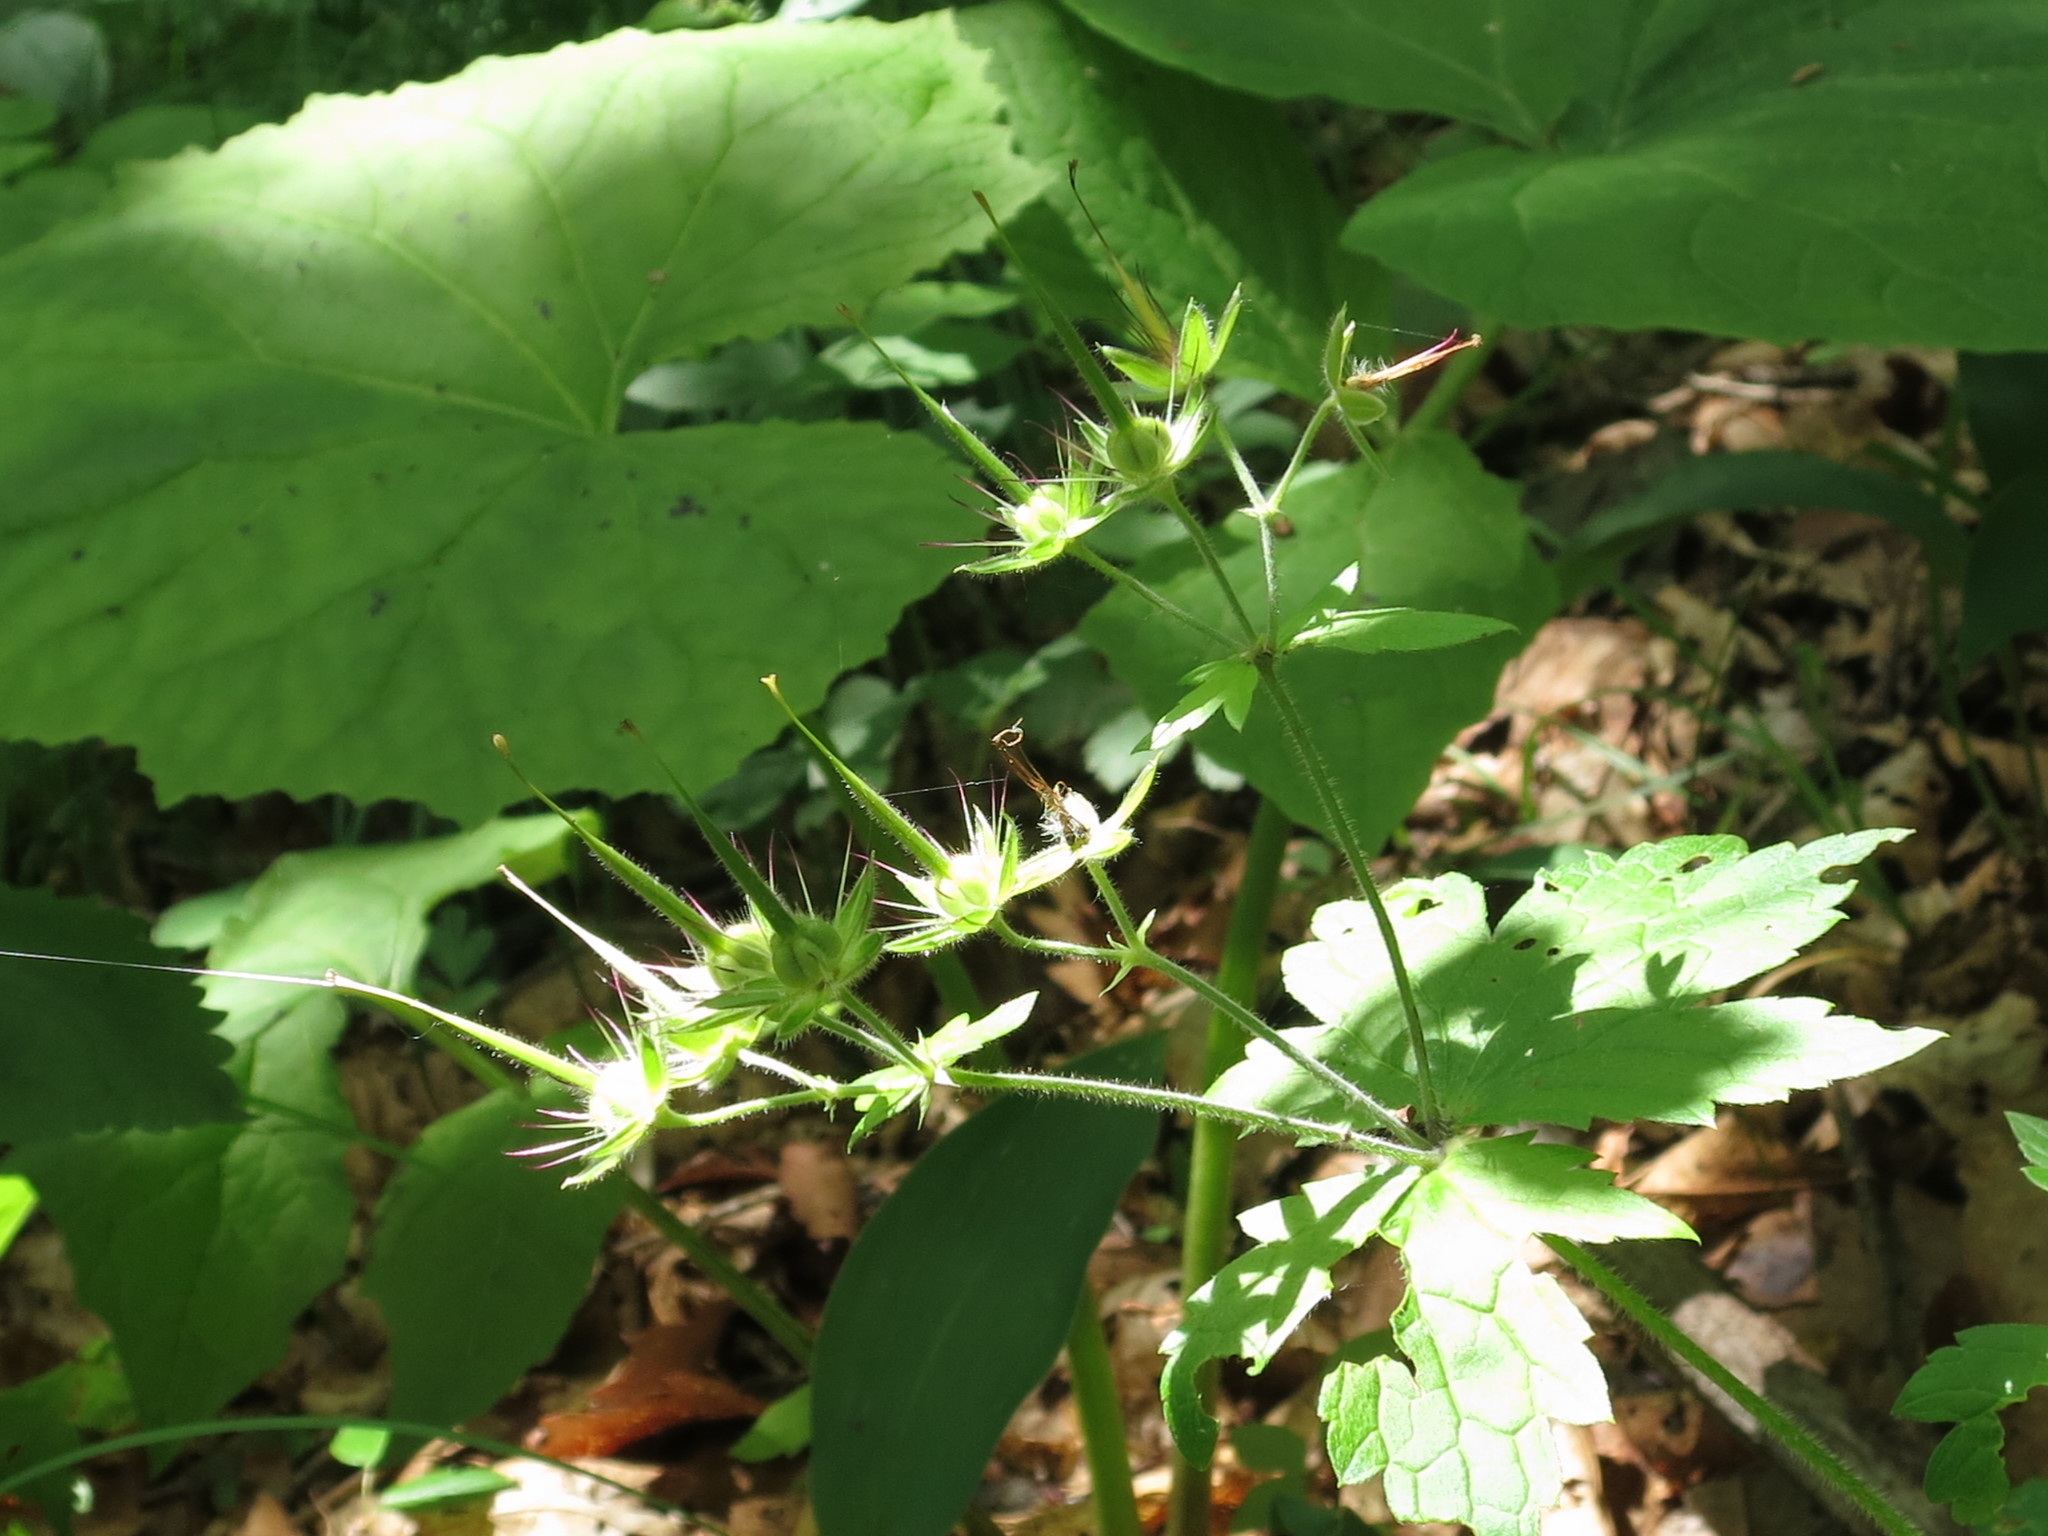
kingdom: Plantae
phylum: Tracheophyta
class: Magnoliopsida
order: Geraniales
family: Geraniaceae
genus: Geranium
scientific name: Geranium platyanthum
